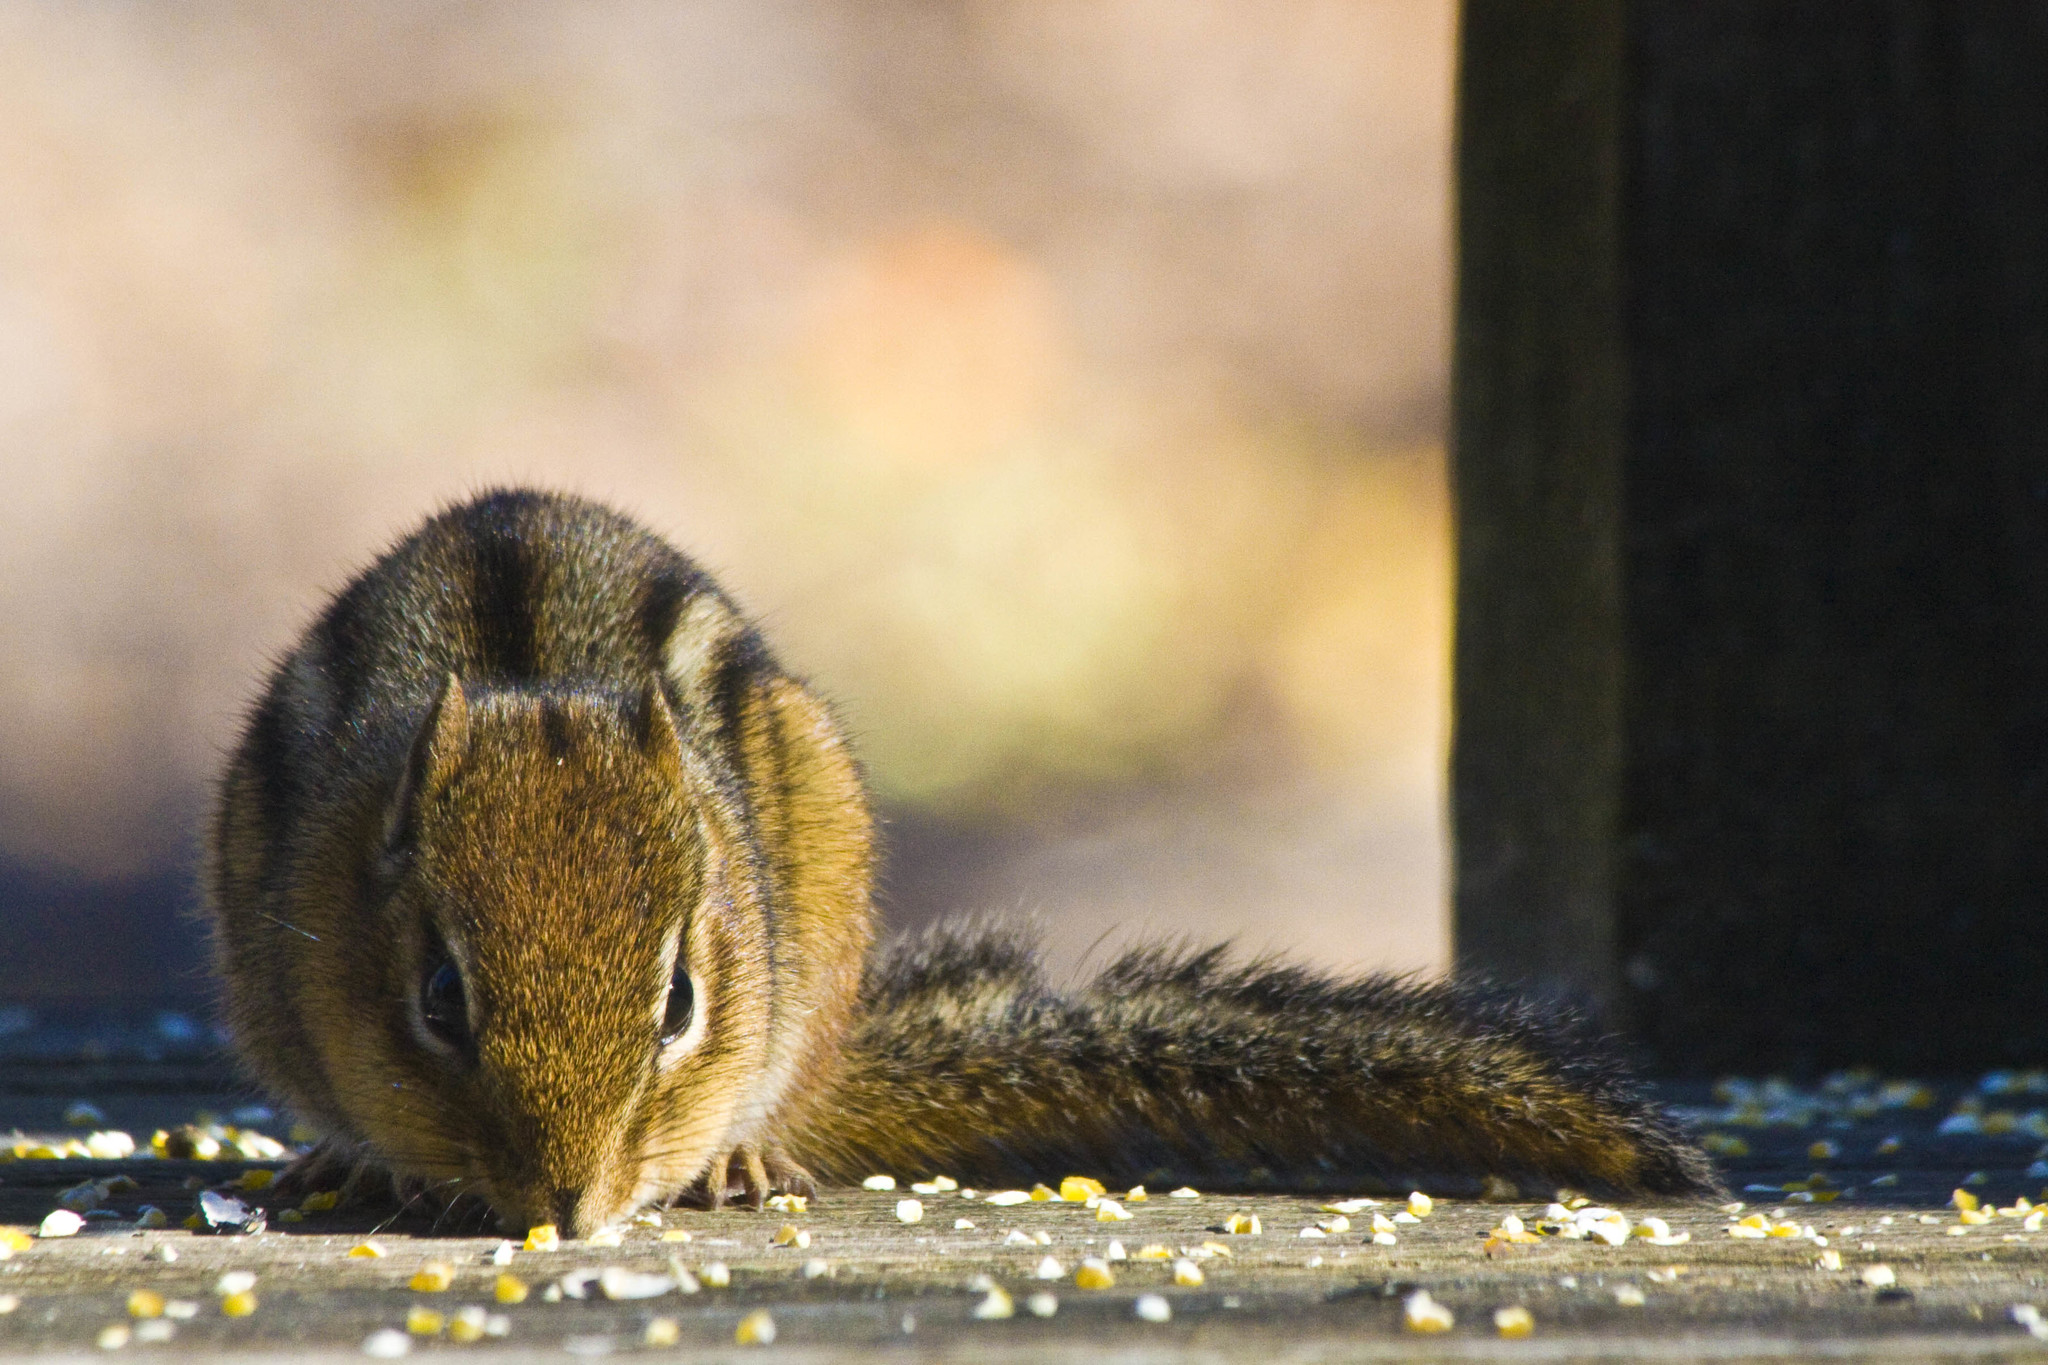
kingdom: Animalia
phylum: Chordata
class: Mammalia
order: Rodentia
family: Sciuridae
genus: Tamias
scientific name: Tamias striatus
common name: Eastern chipmunk
